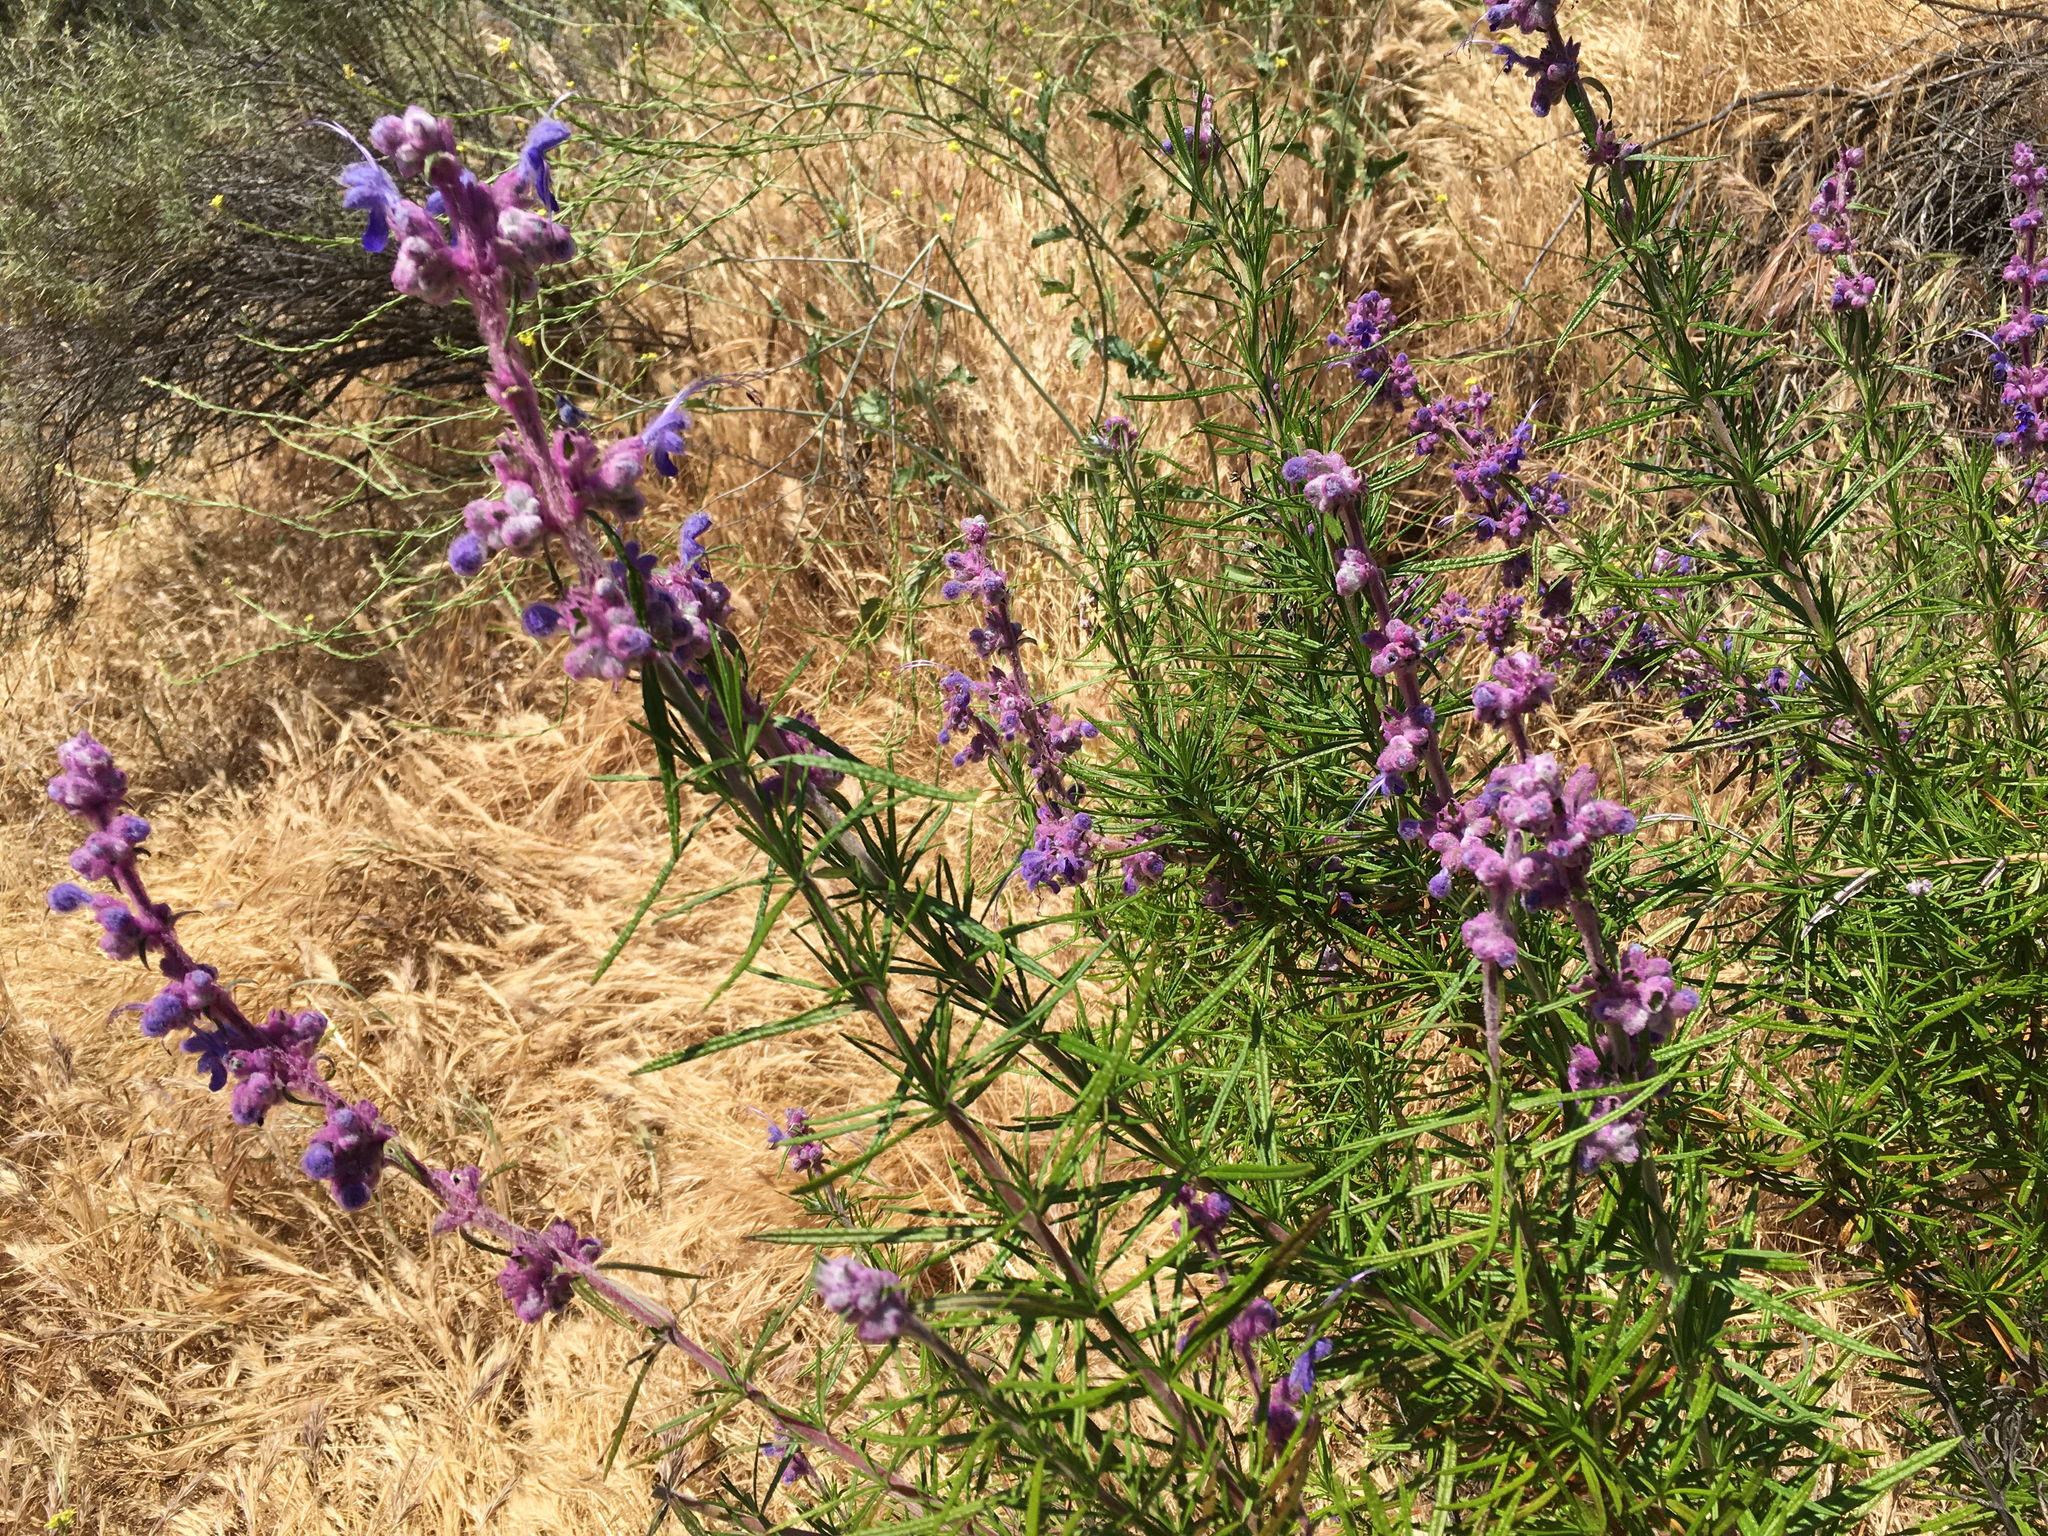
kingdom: Plantae
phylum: Tracheophyta
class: Magnoliopsida
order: Lamiales
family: Lamiaceae
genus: Trichostema
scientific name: Trichostema lanatum
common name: Woolly bluecurls
